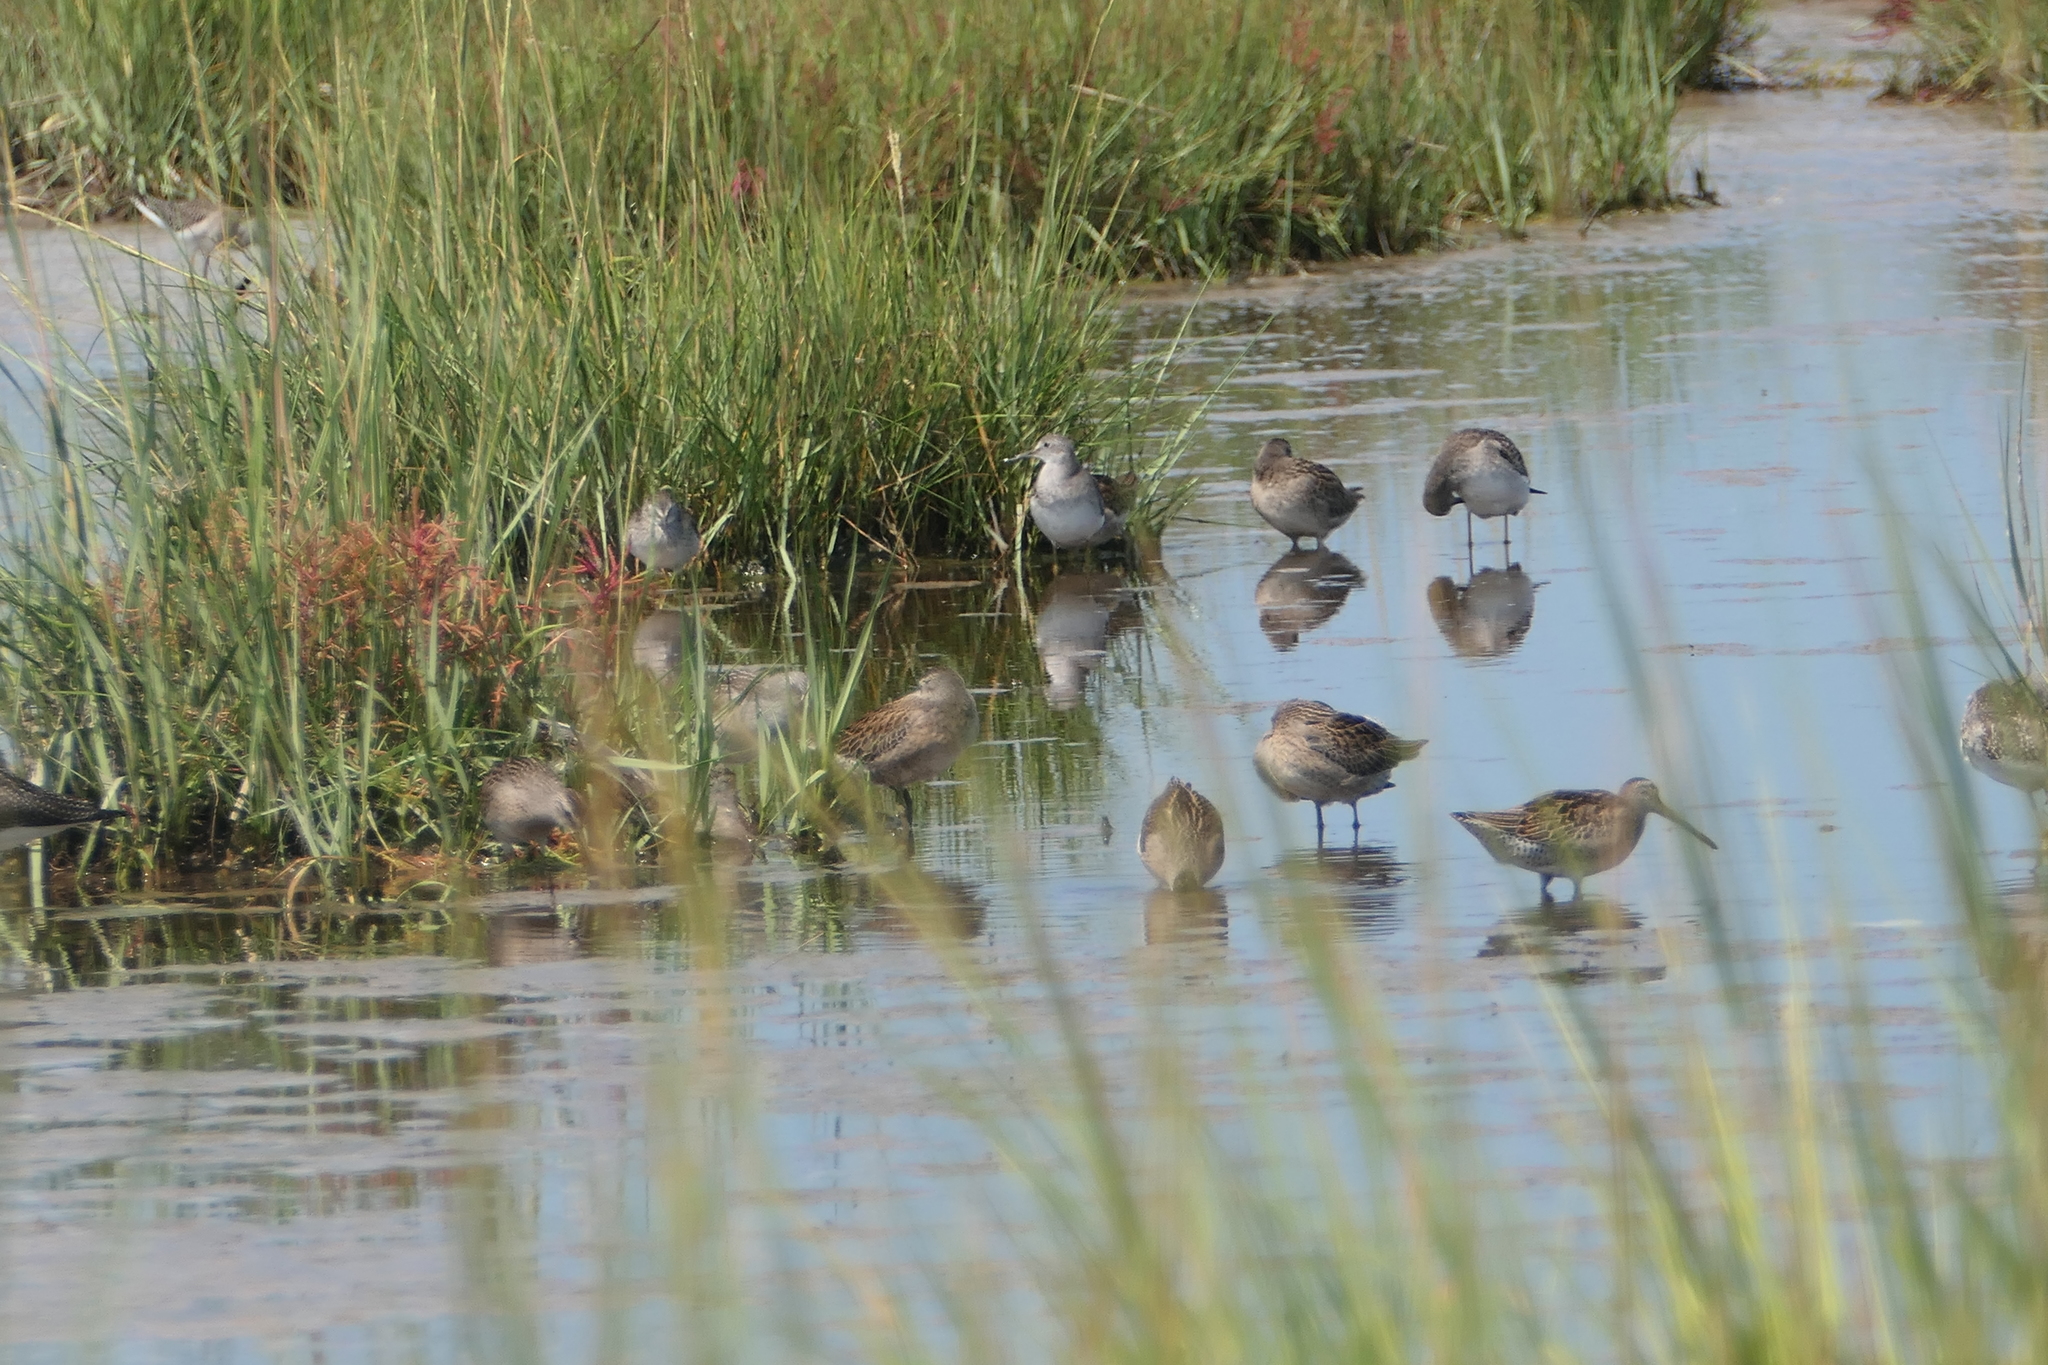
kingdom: Animalia
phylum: Chordata
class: Aves
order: Charadriiformes
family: Scolopacidae
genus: Limnodromus
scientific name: Limnodromus griseus
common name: Short-billed dowitcher
